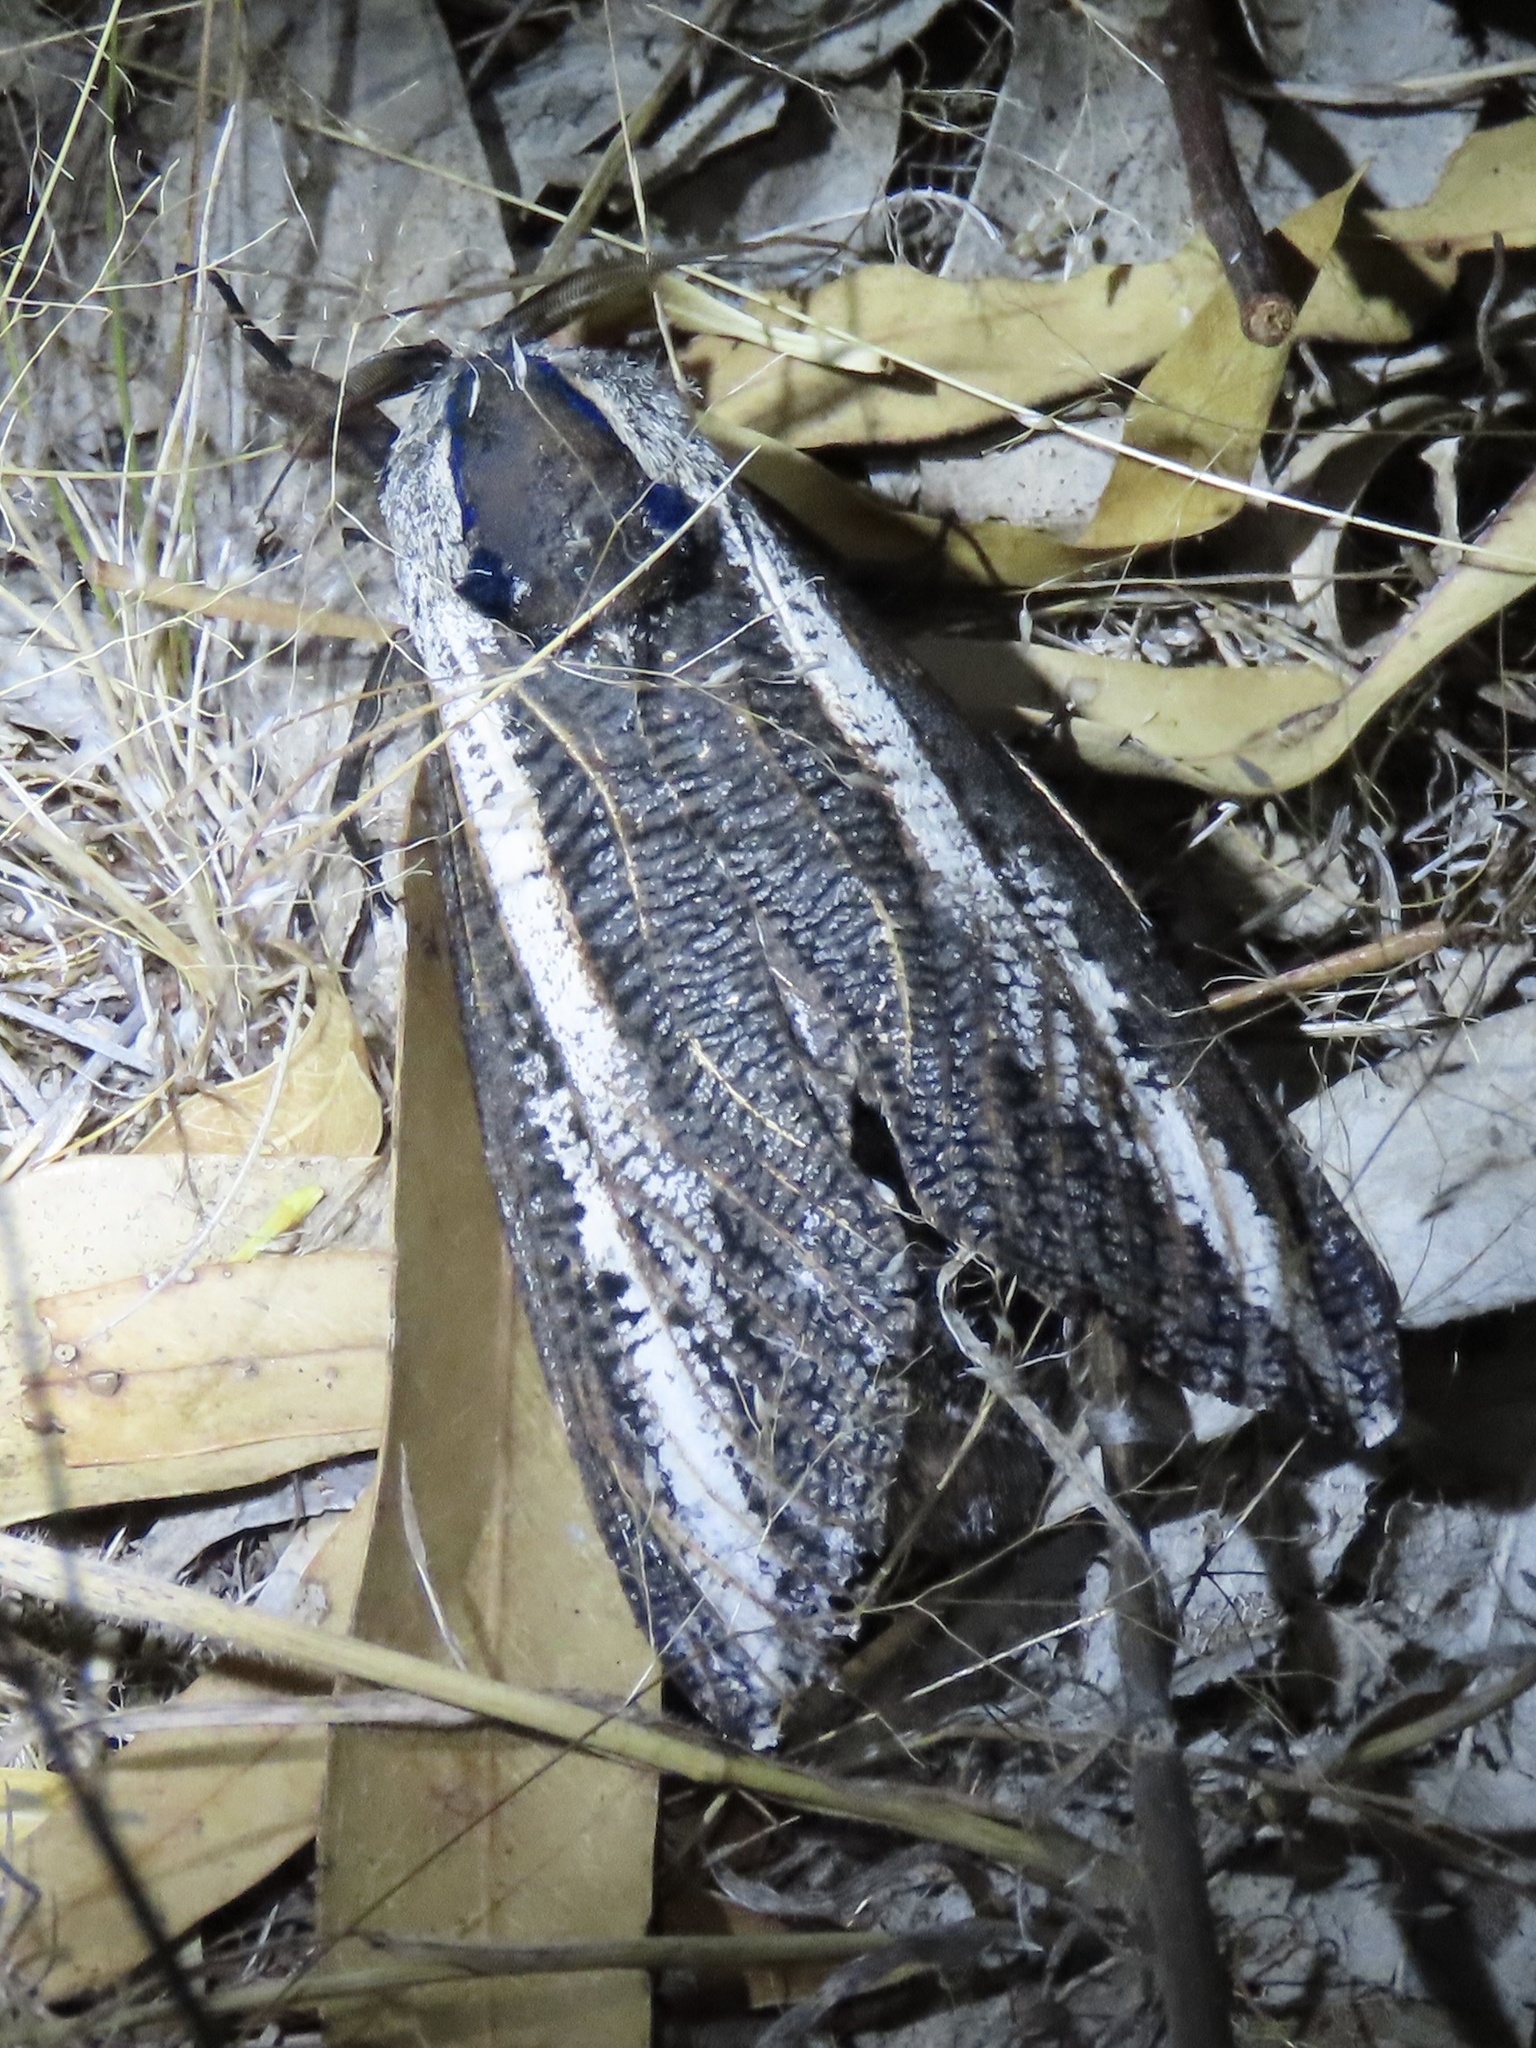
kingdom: Animalia
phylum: Arthropoda
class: Insecta
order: Lepidoptera
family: Cossidae
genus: Endoxyla
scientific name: Endoxyla leucomochla
